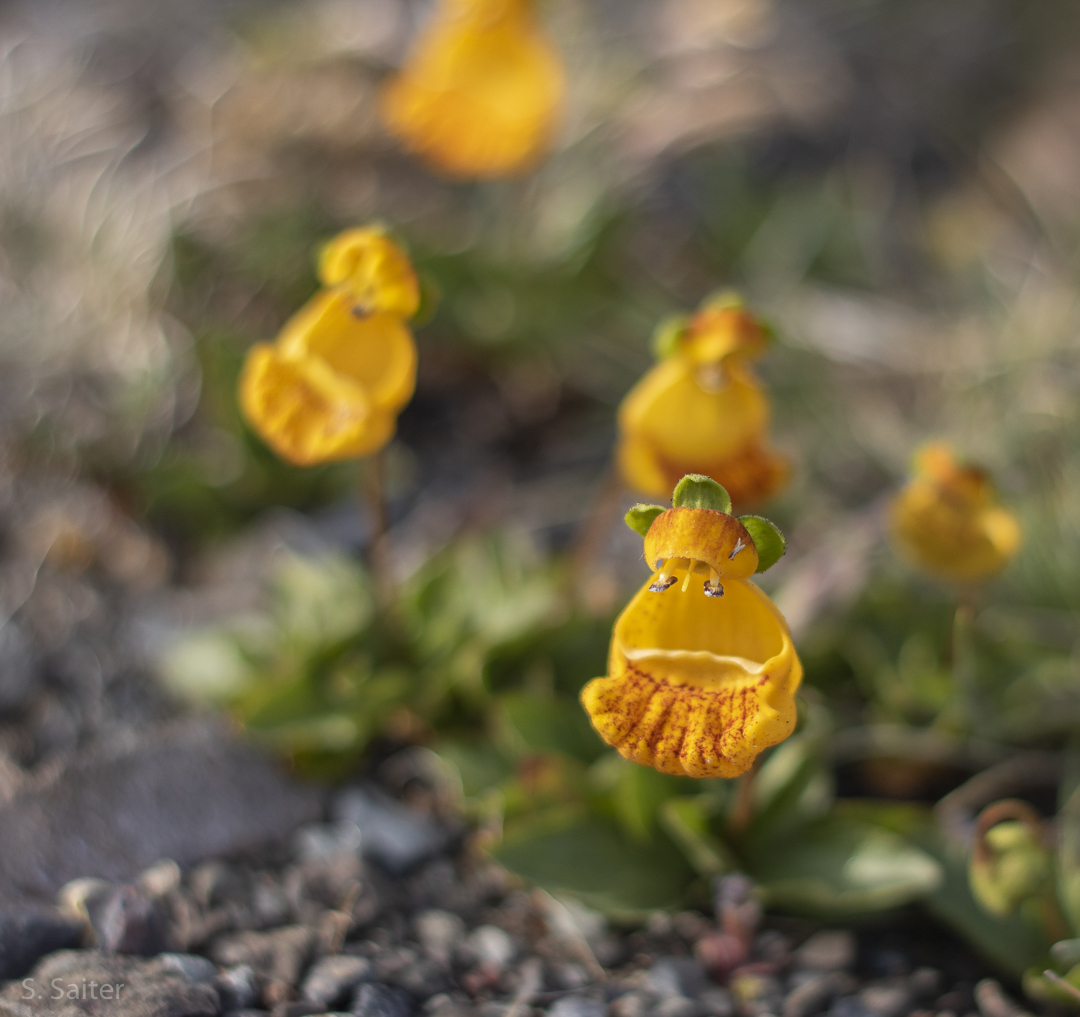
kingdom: Plantae
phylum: Tracheophyta
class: Magnoliopsida
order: Lamiales
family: Calceolariaceae
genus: Calceolaria
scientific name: Calceolaria
